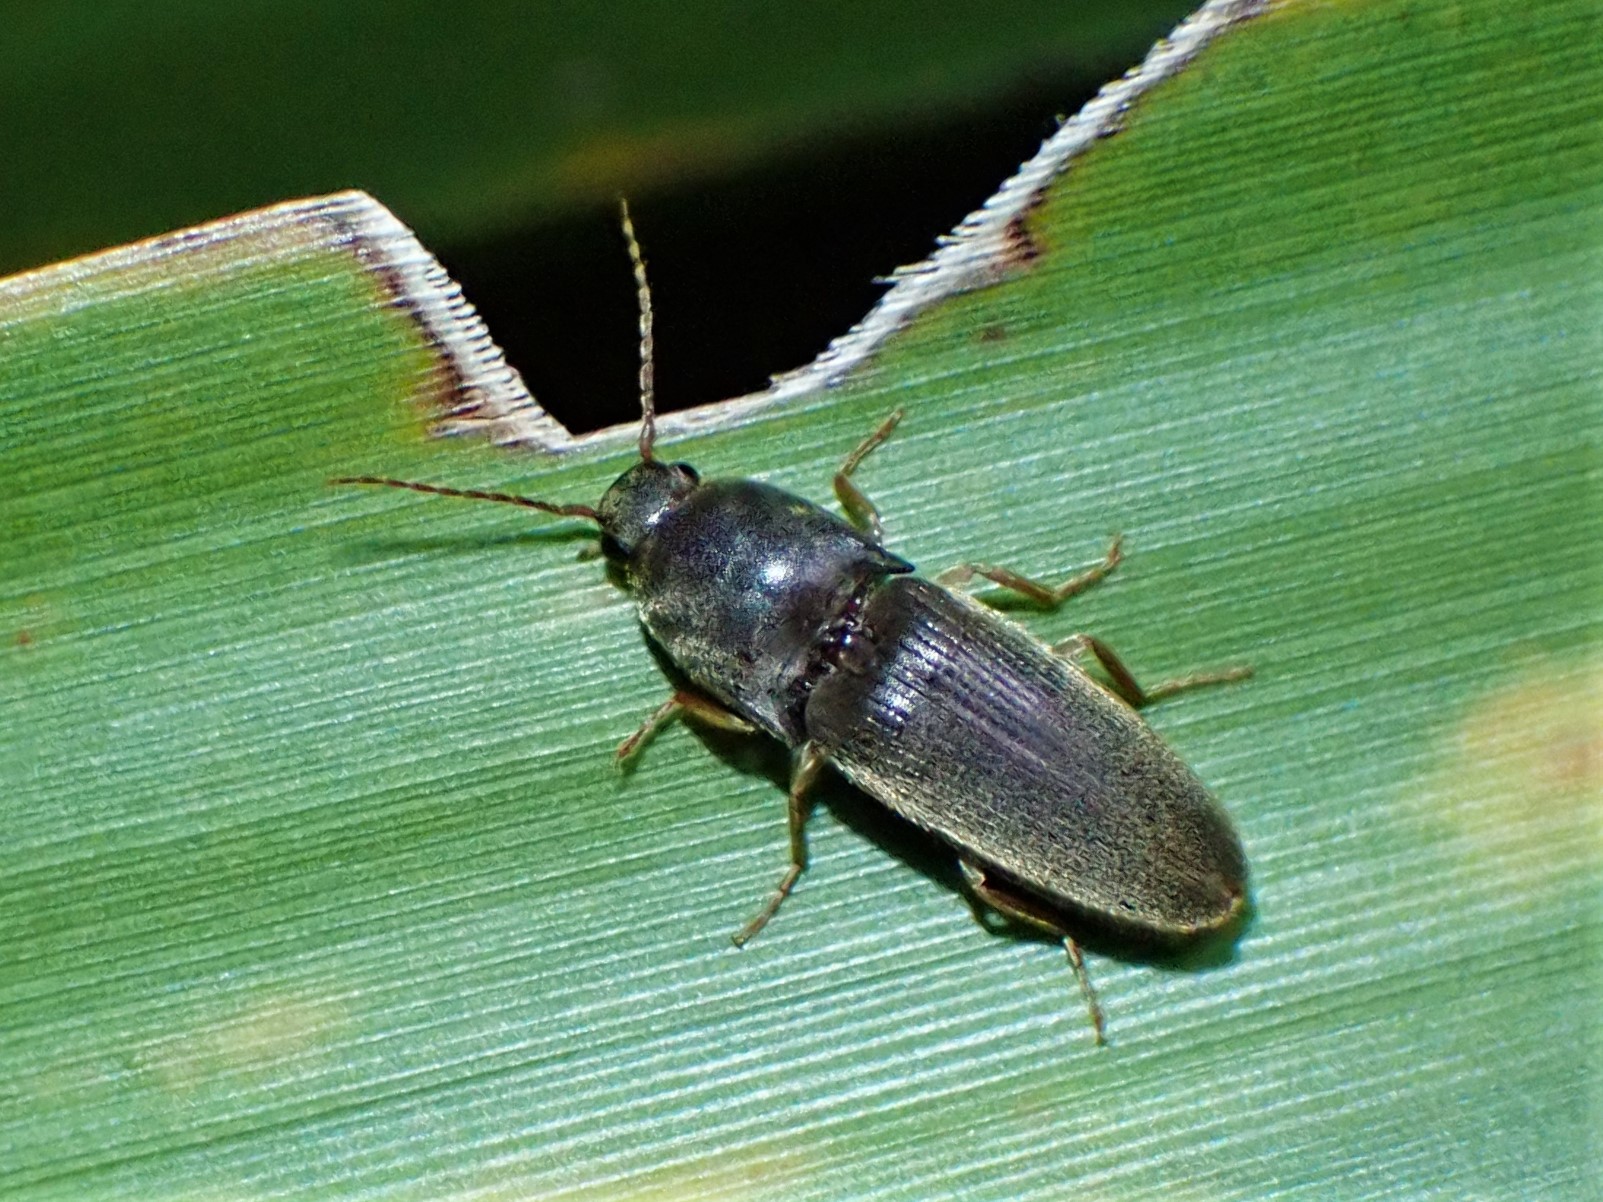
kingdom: Animalia
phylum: Arthropoda
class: Insecta
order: Coleoptera
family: Elateridae
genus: Conoderus
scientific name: Conoderus exsul
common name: Click beetle
